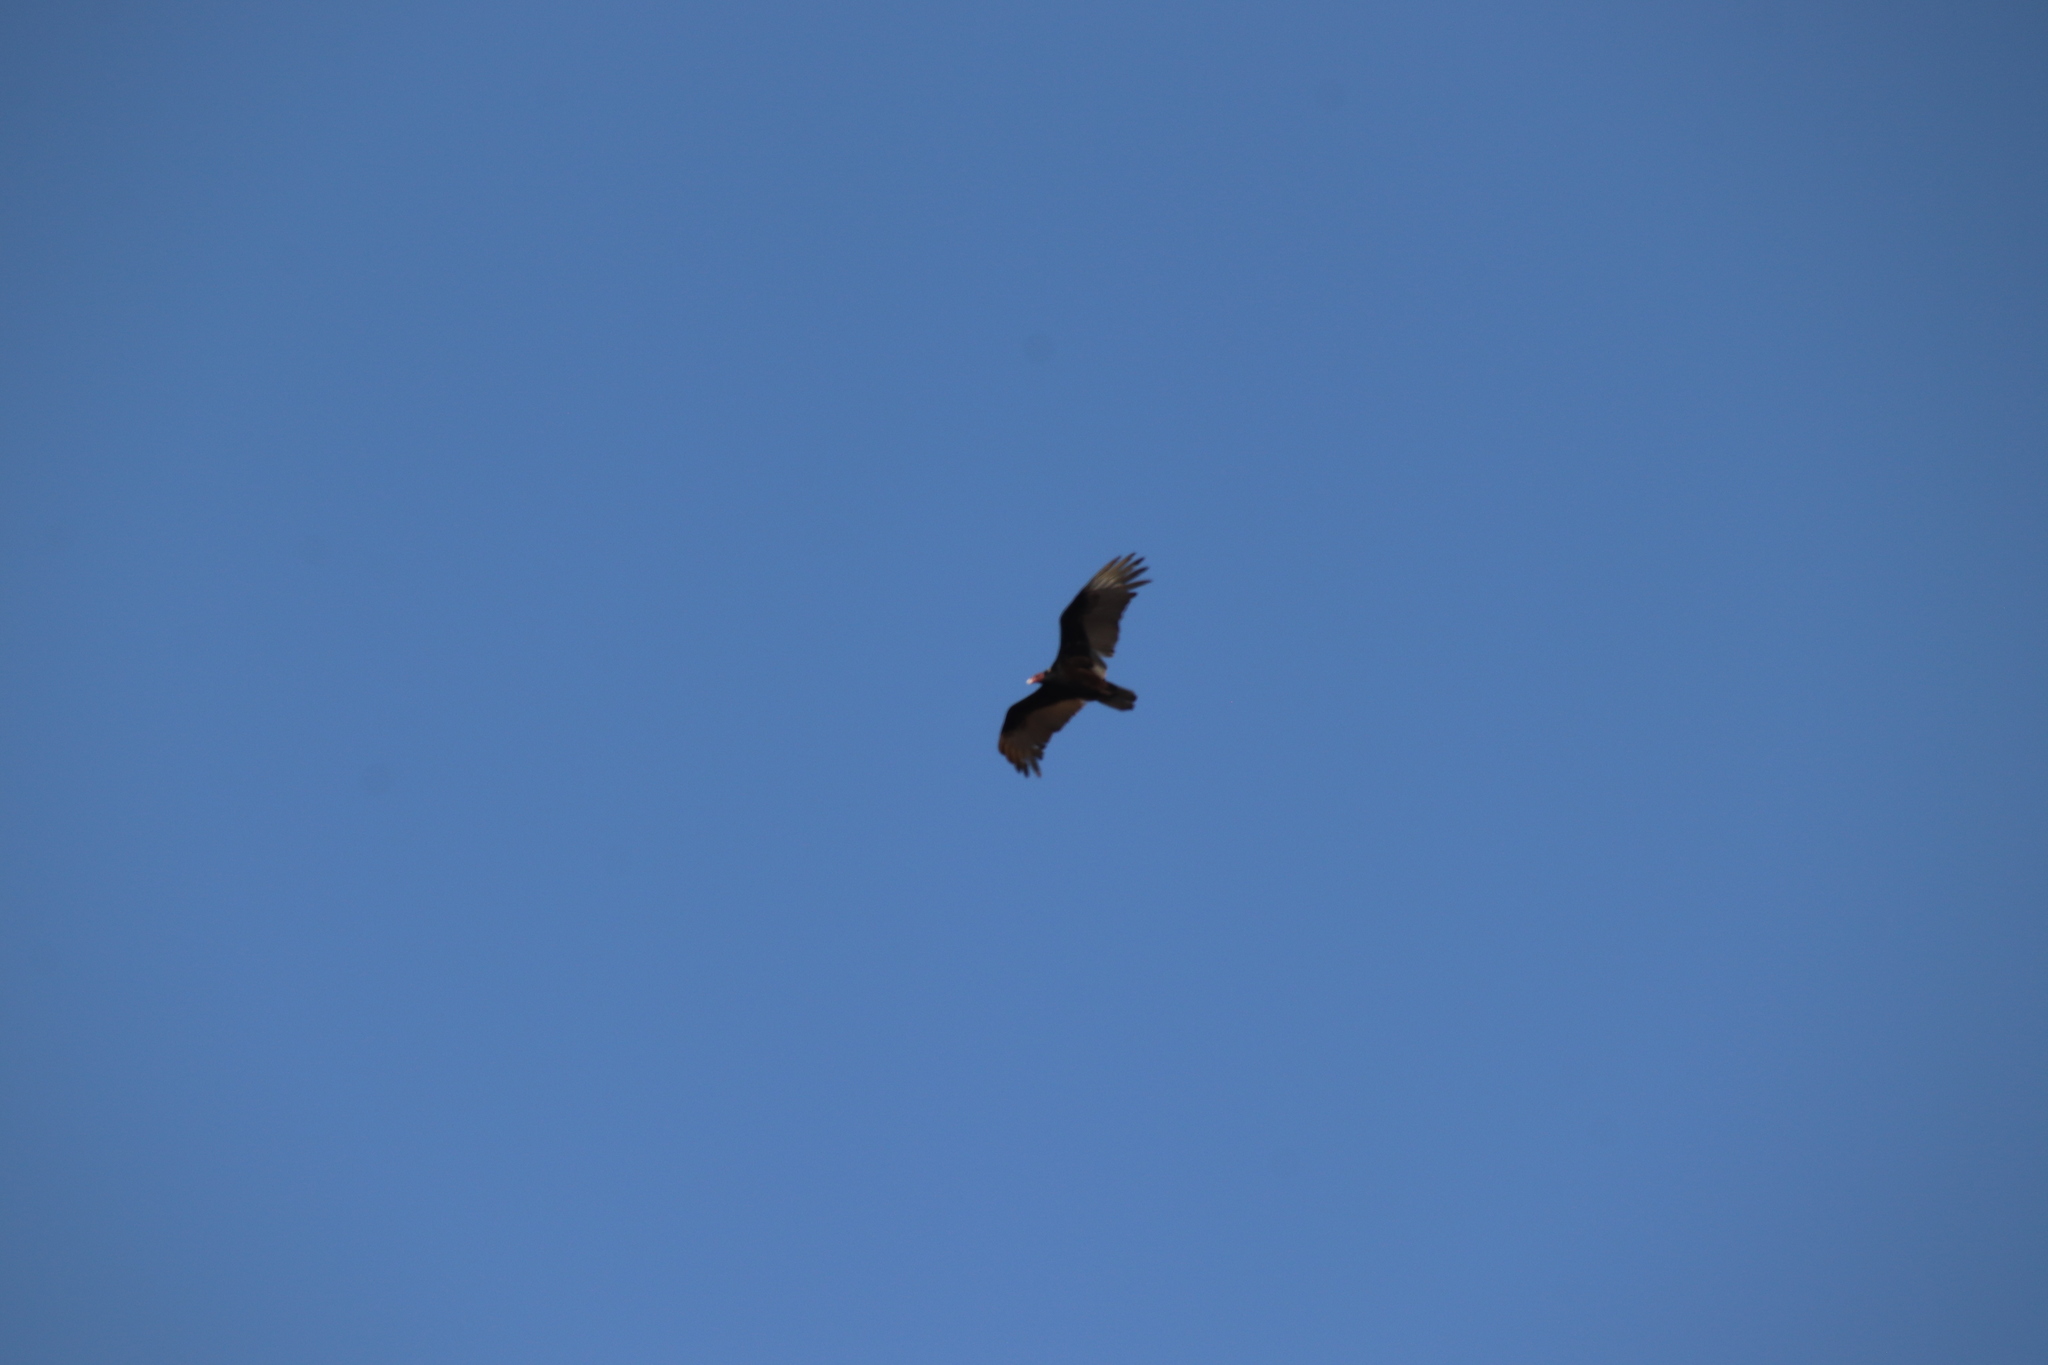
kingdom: Animalia
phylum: Chordata
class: Aves
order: Accipitriformes
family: Cathartidae
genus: Cathartes
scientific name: Cathartes aura
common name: Turkey vulture
